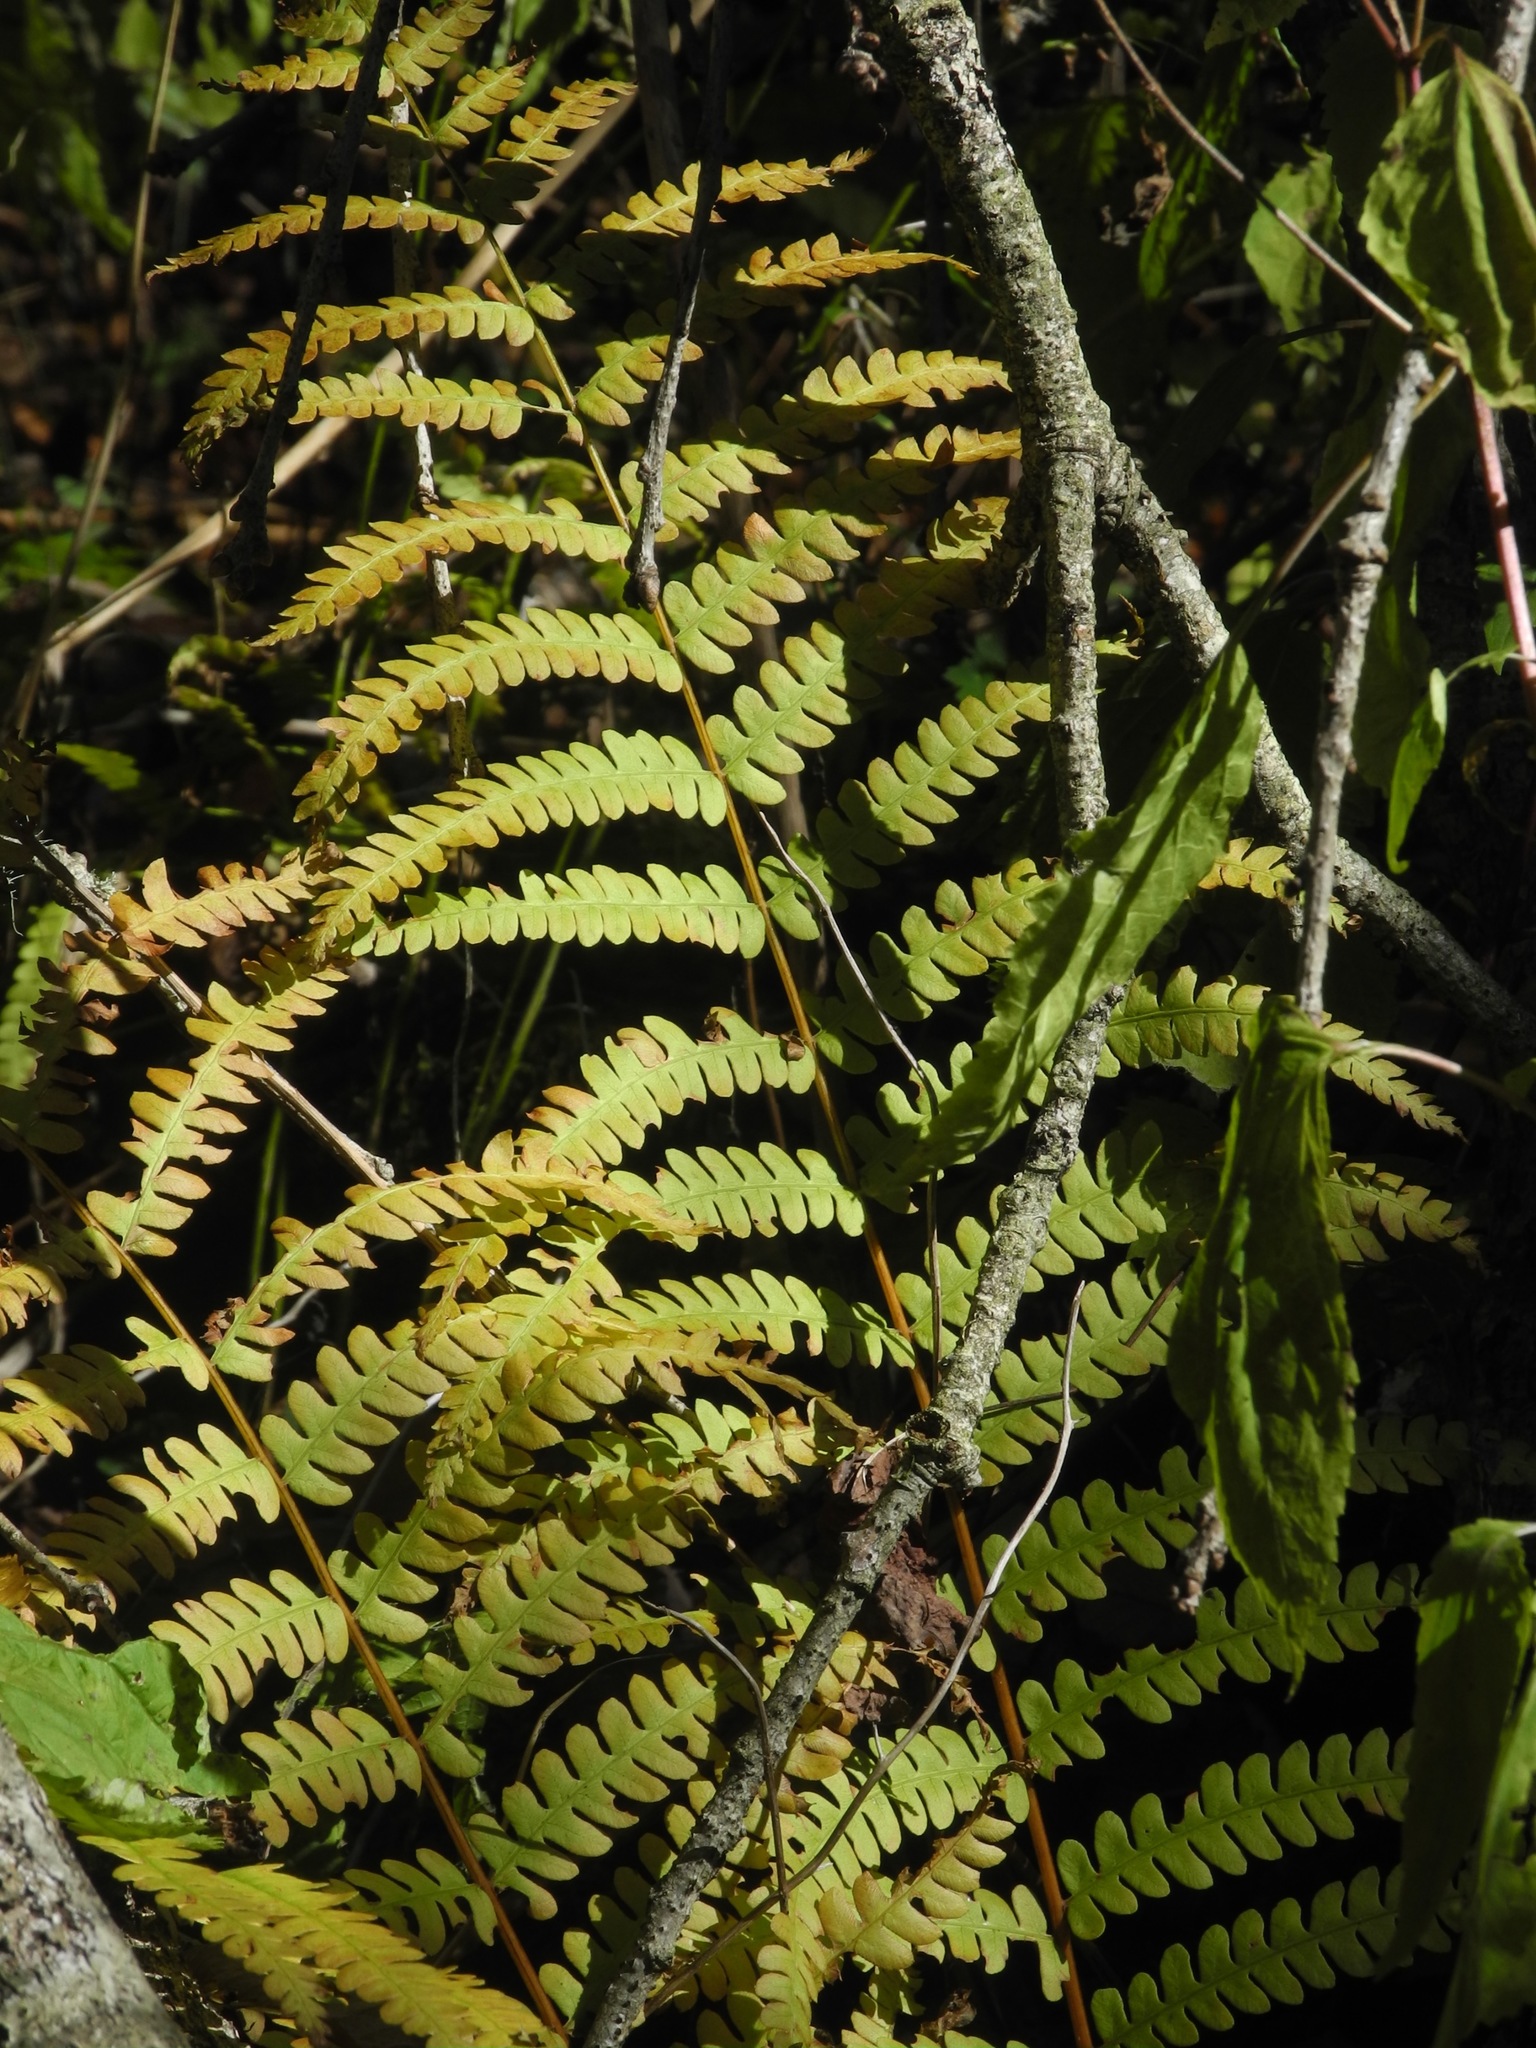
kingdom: Plantae
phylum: Tracheophyta
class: Polypodiopsida
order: Osmundales
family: Osmundaceae
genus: Osmundastrum
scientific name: Osmundastrum cinnamomeum
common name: Cinnamon fern
